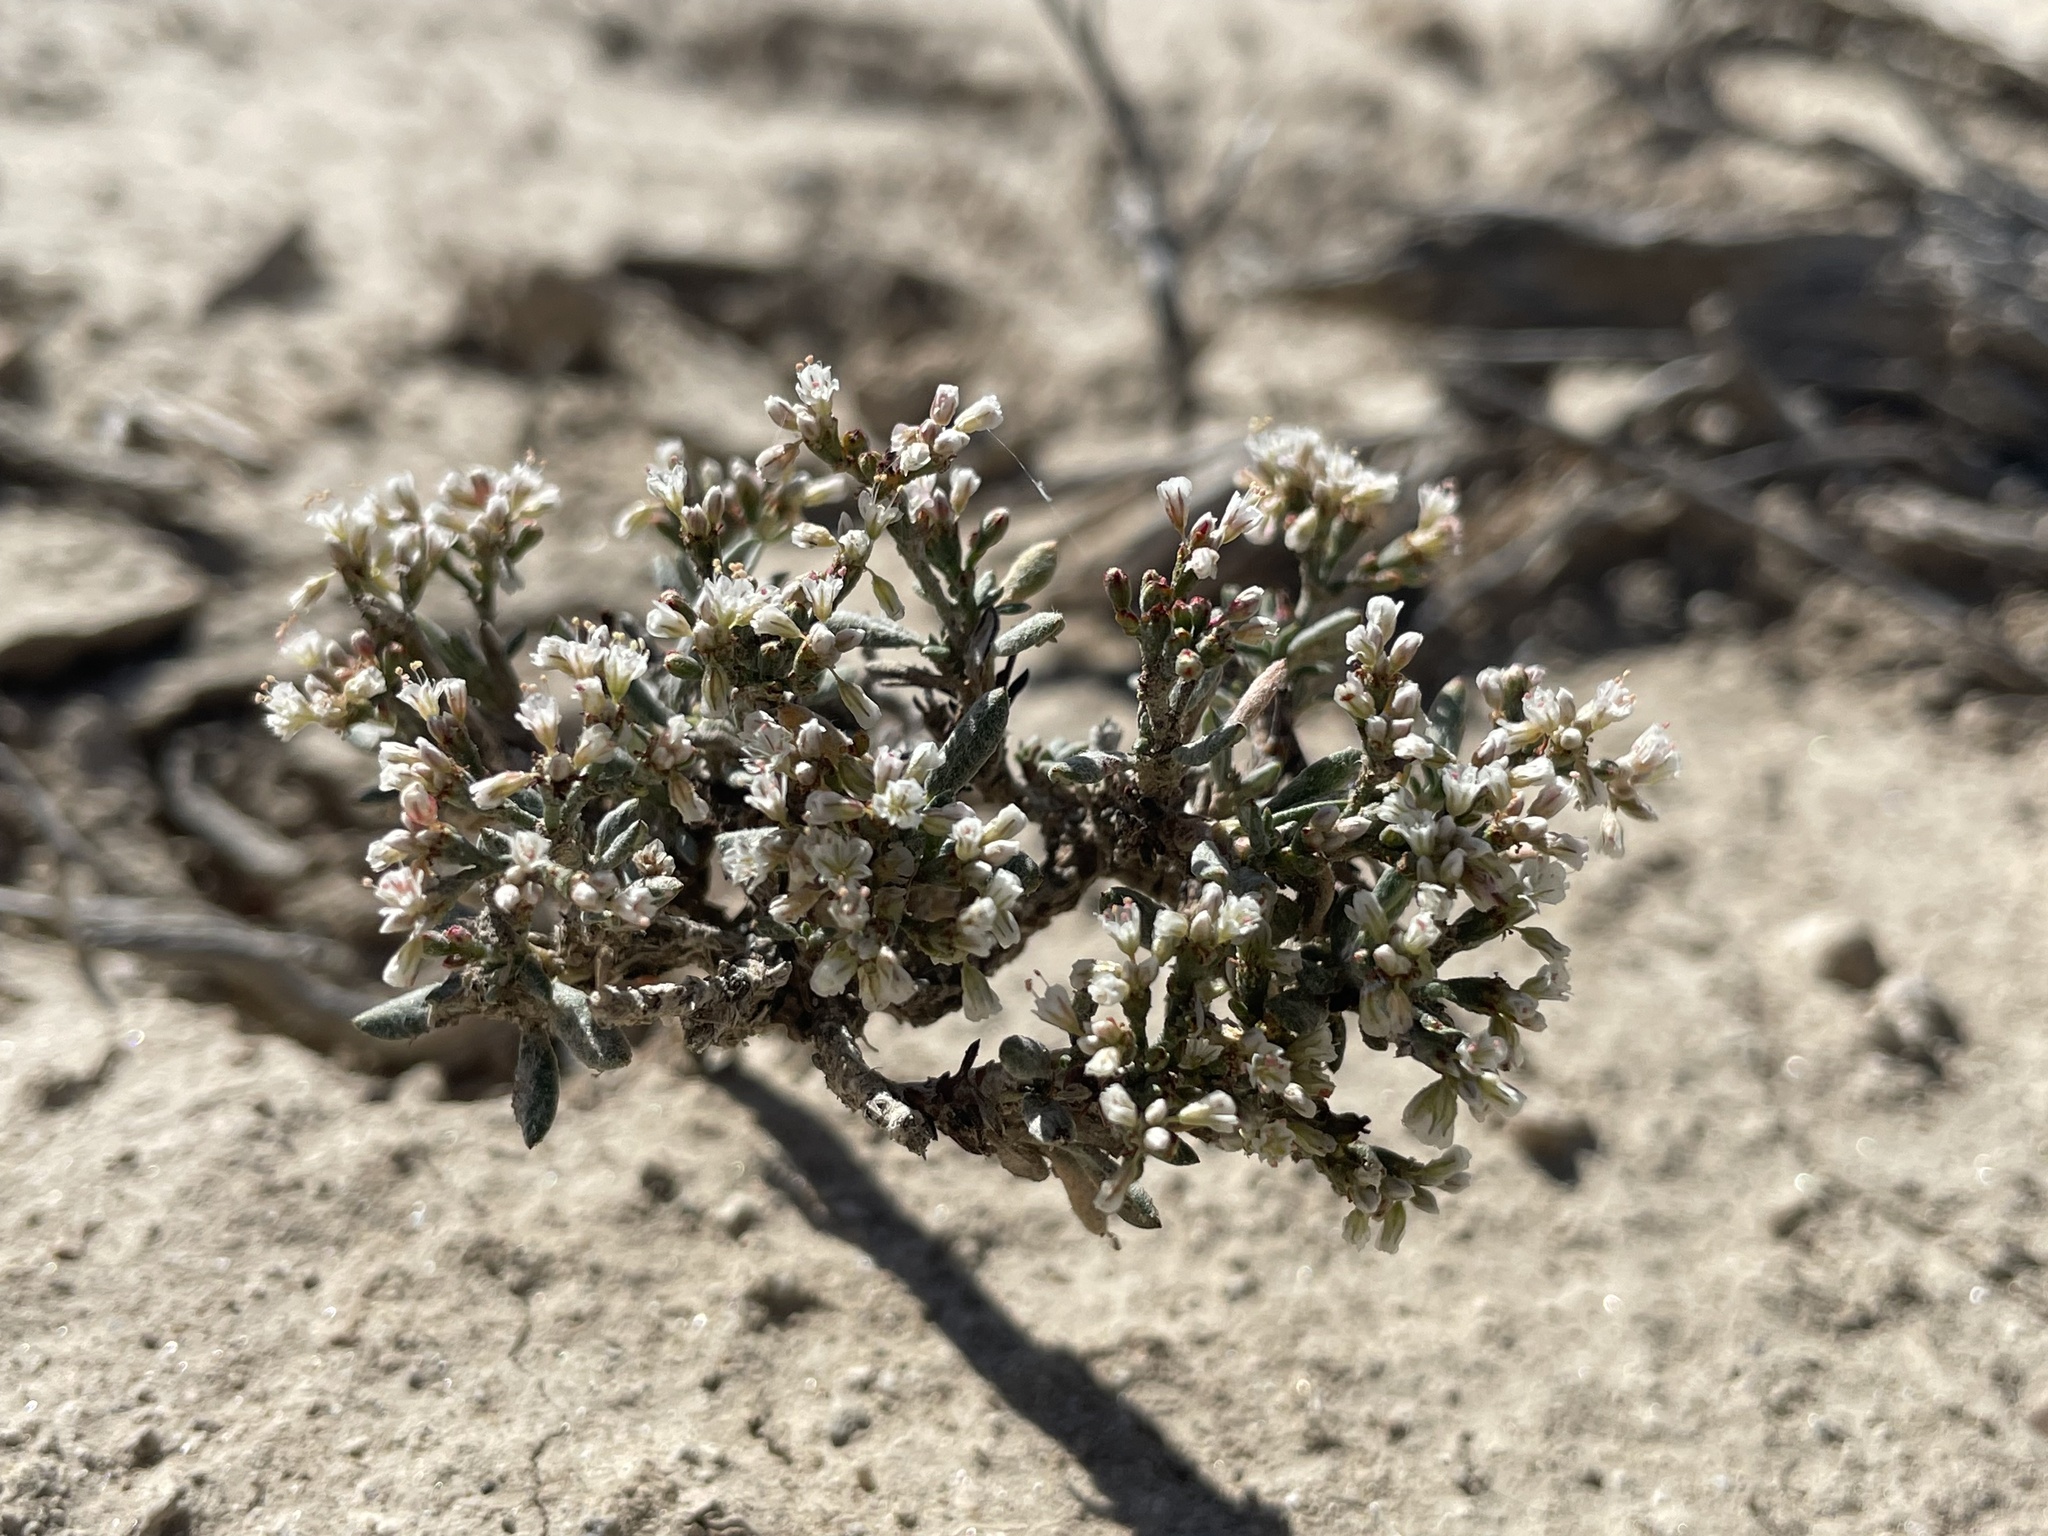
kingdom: Plantae
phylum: Tracheophyta
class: Magnoliopsida
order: Caryophyllales
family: Polygonaceae
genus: Eriogonum
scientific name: Eriogonum microtheca
